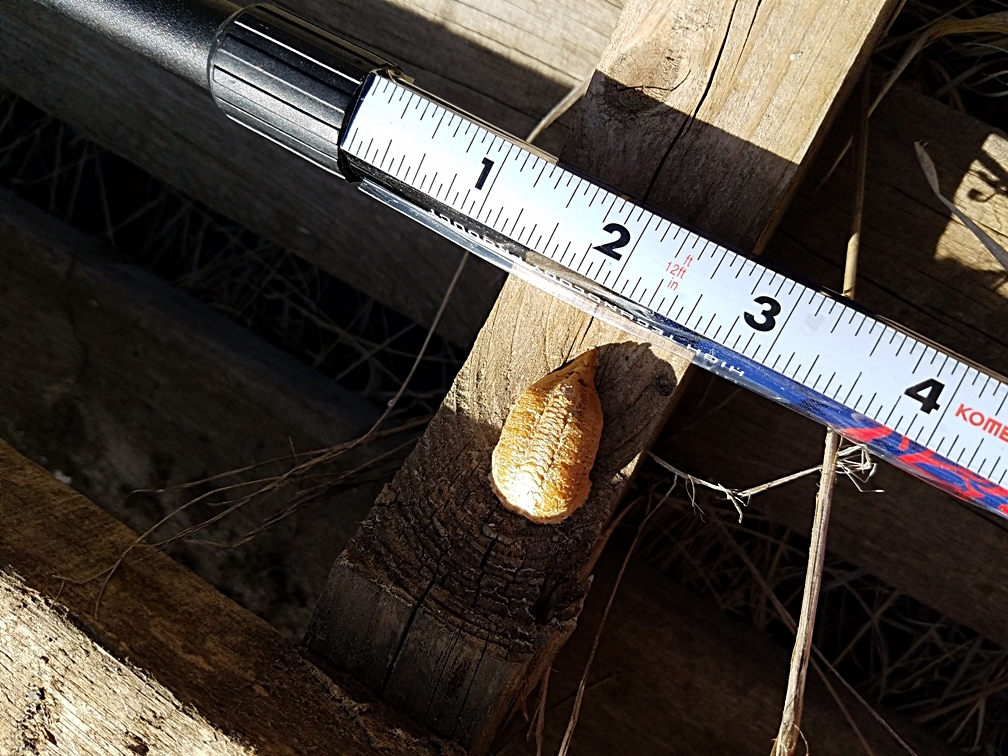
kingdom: Animalia
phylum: Arthropoda
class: Insecta
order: Mantodea
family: Mantidae
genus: Mantis
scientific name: Mantis religiosa
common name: Praying mantis
